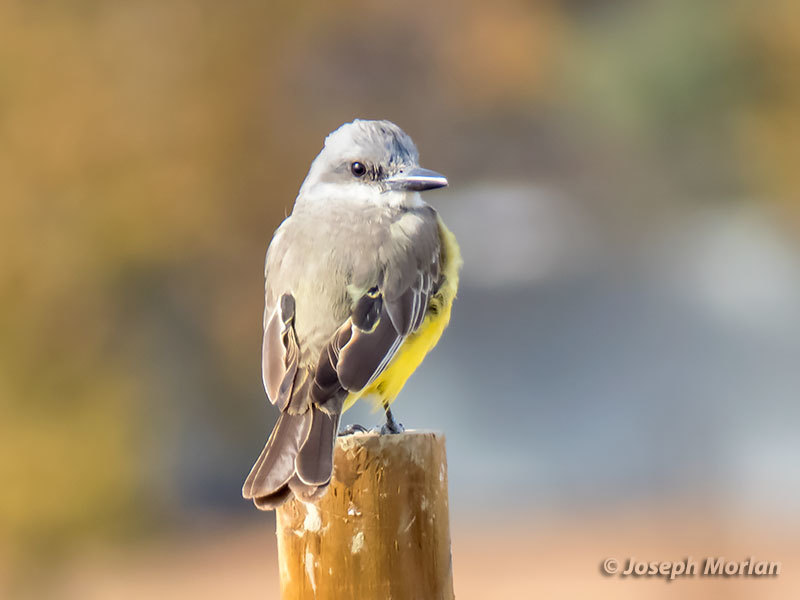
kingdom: Animalia
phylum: Chordata
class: Aves
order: Passeriformes
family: Tyrannidae
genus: Tyrannus
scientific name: Tyrannus melancholicus
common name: Tropical kingbird
